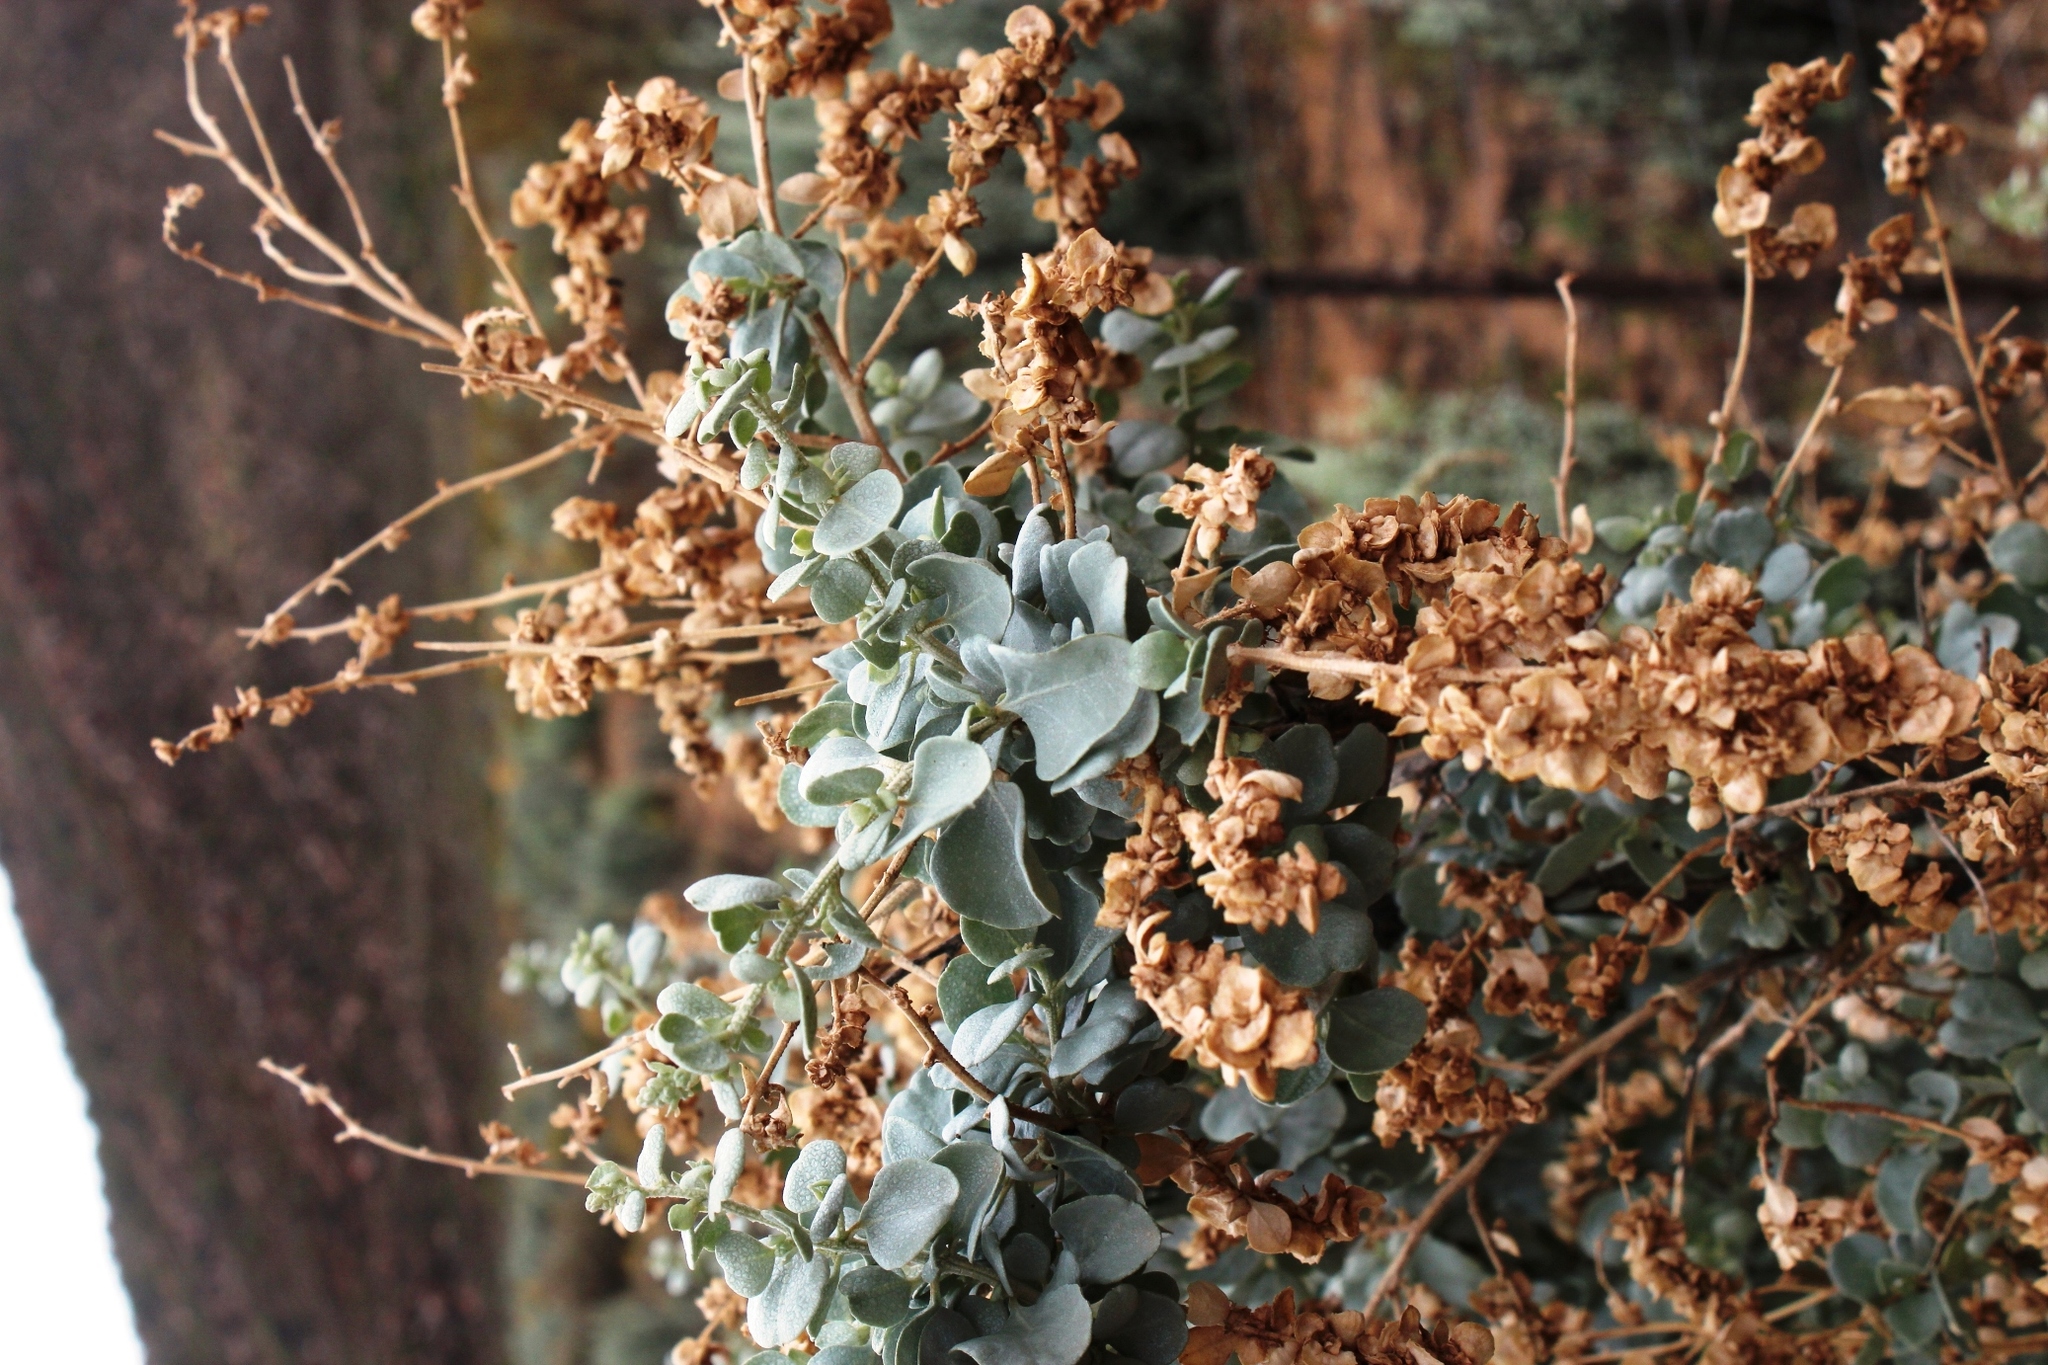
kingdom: Plantae
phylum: Tracheophyta
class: Magnoliopsida
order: Caryophyllales
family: Amaranthaceae
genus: Atriplex
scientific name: Atriplex nummularia
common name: Bluegreen saltbush
